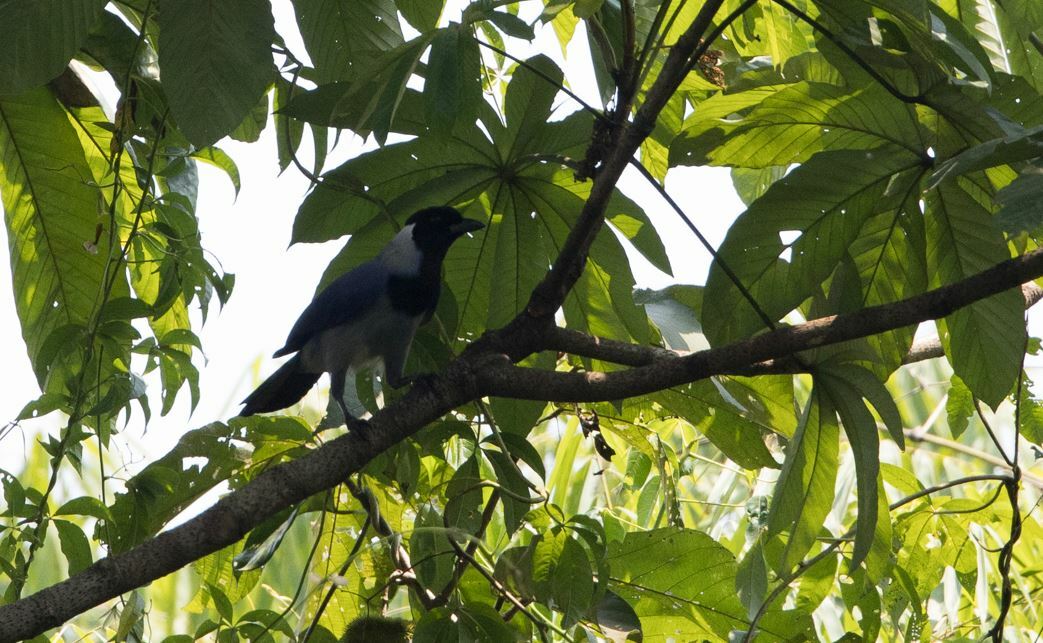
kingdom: Animalia
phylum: Chordata
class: Aves
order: Passeriformes
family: Corvidae
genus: Cyanocorax
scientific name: Cyanocorax violaceus
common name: Violaceous jay
